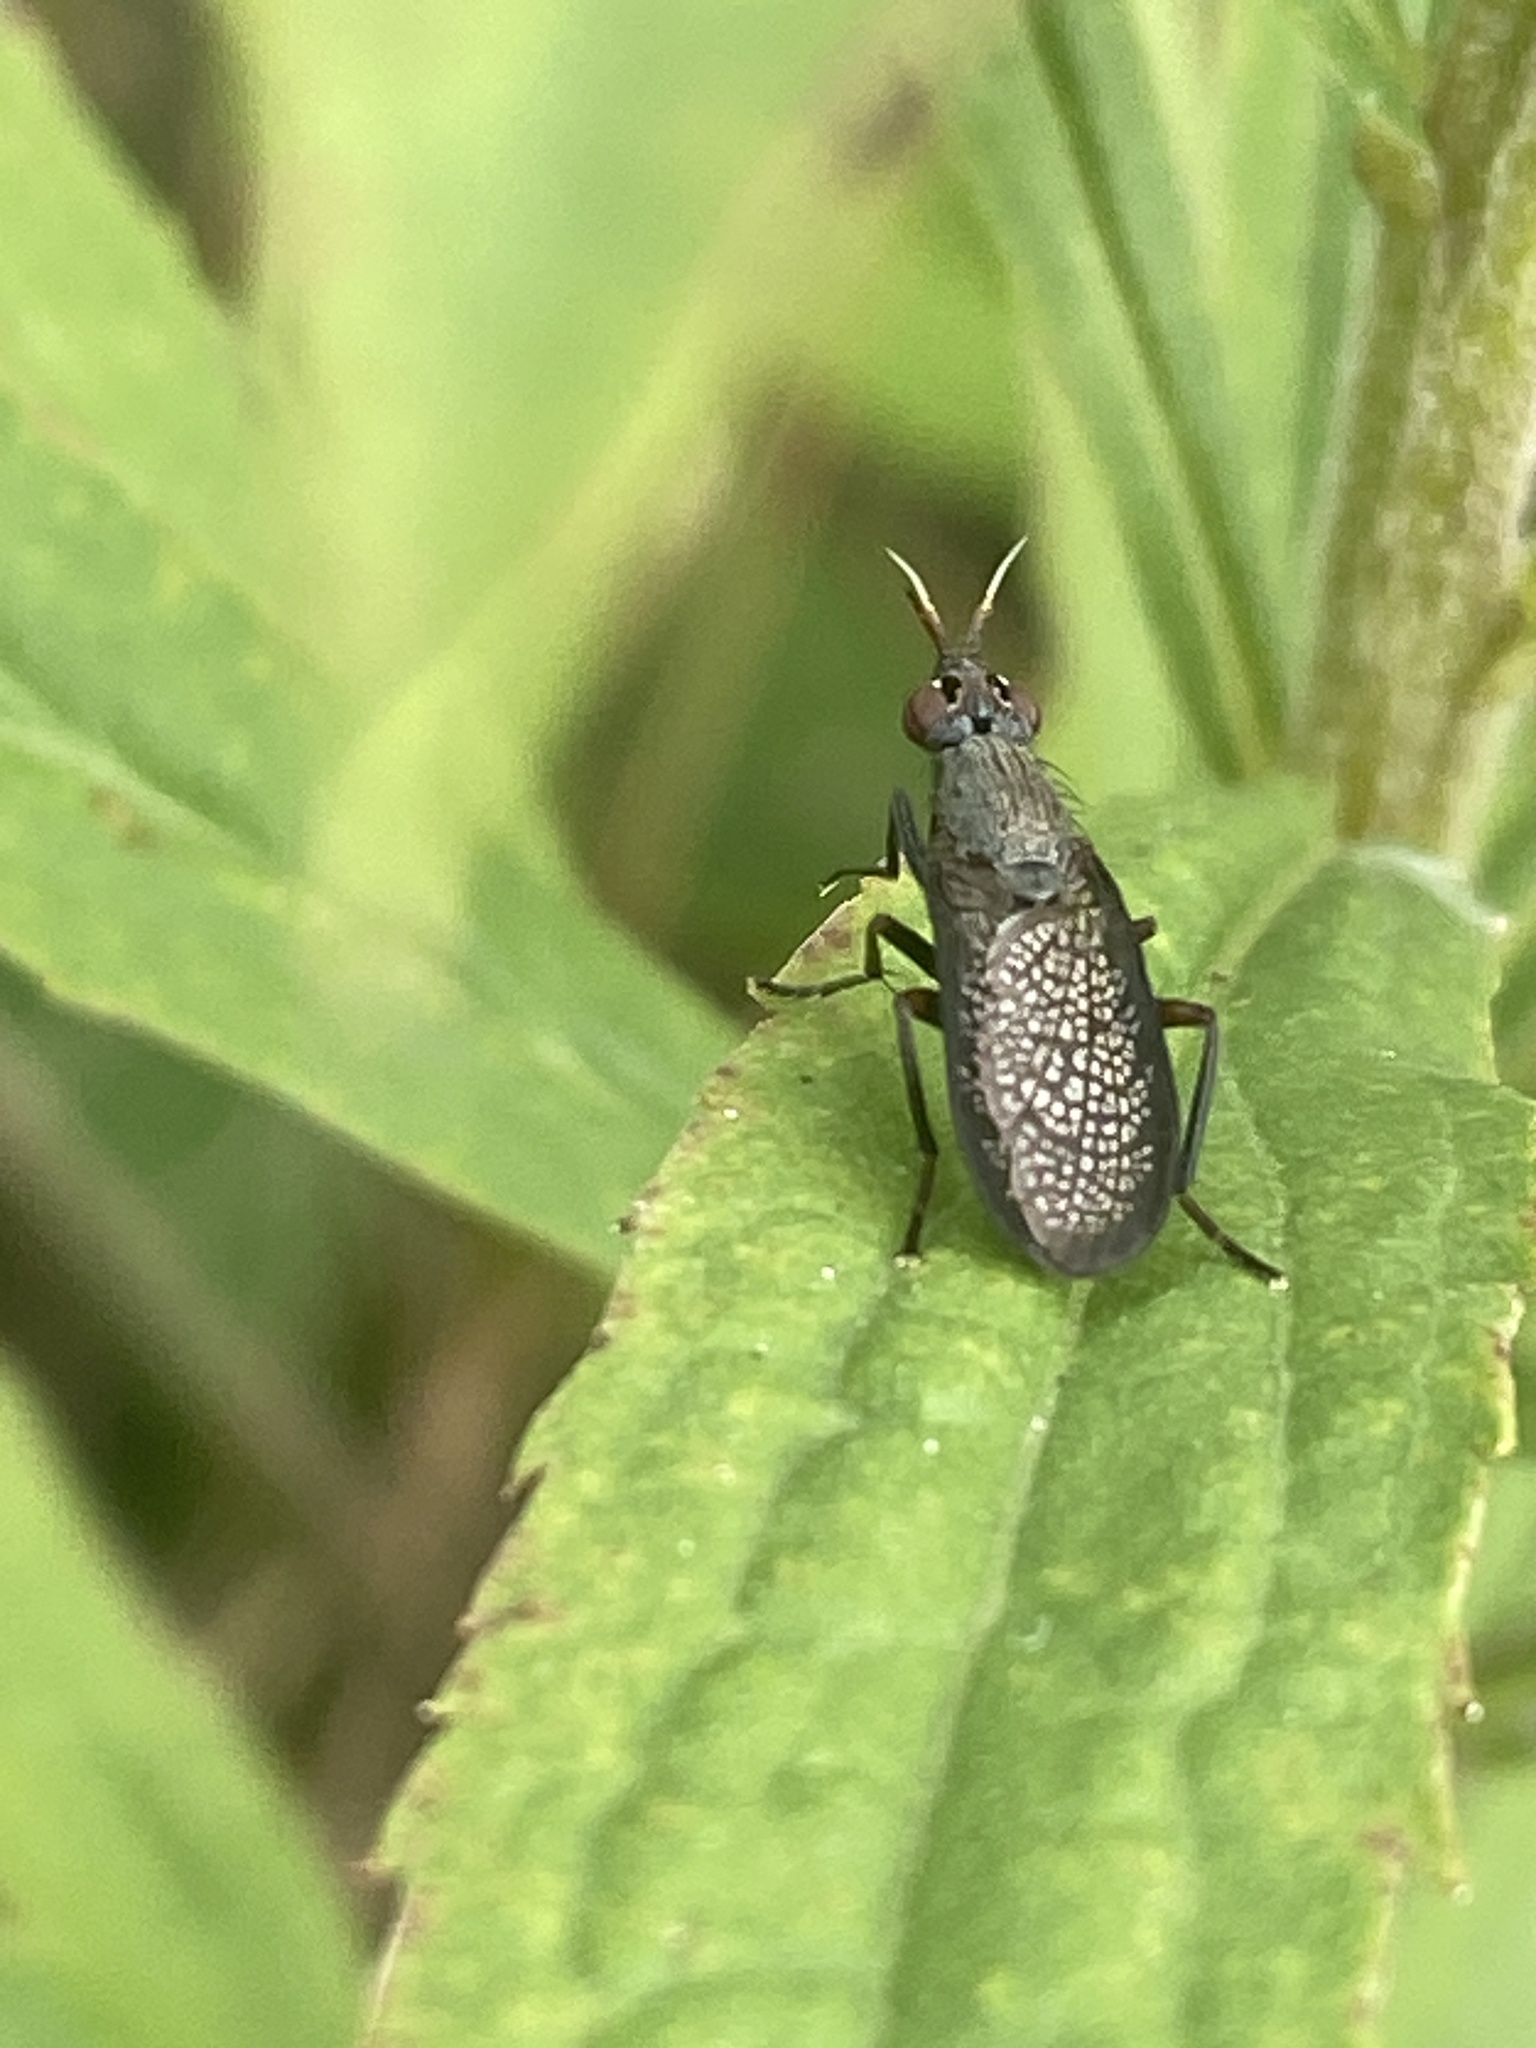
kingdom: Animalia
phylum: Arthropoda
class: Insecta
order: Diptera
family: Sciomyzidae
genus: Coremacera
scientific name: Coremacera marginata
